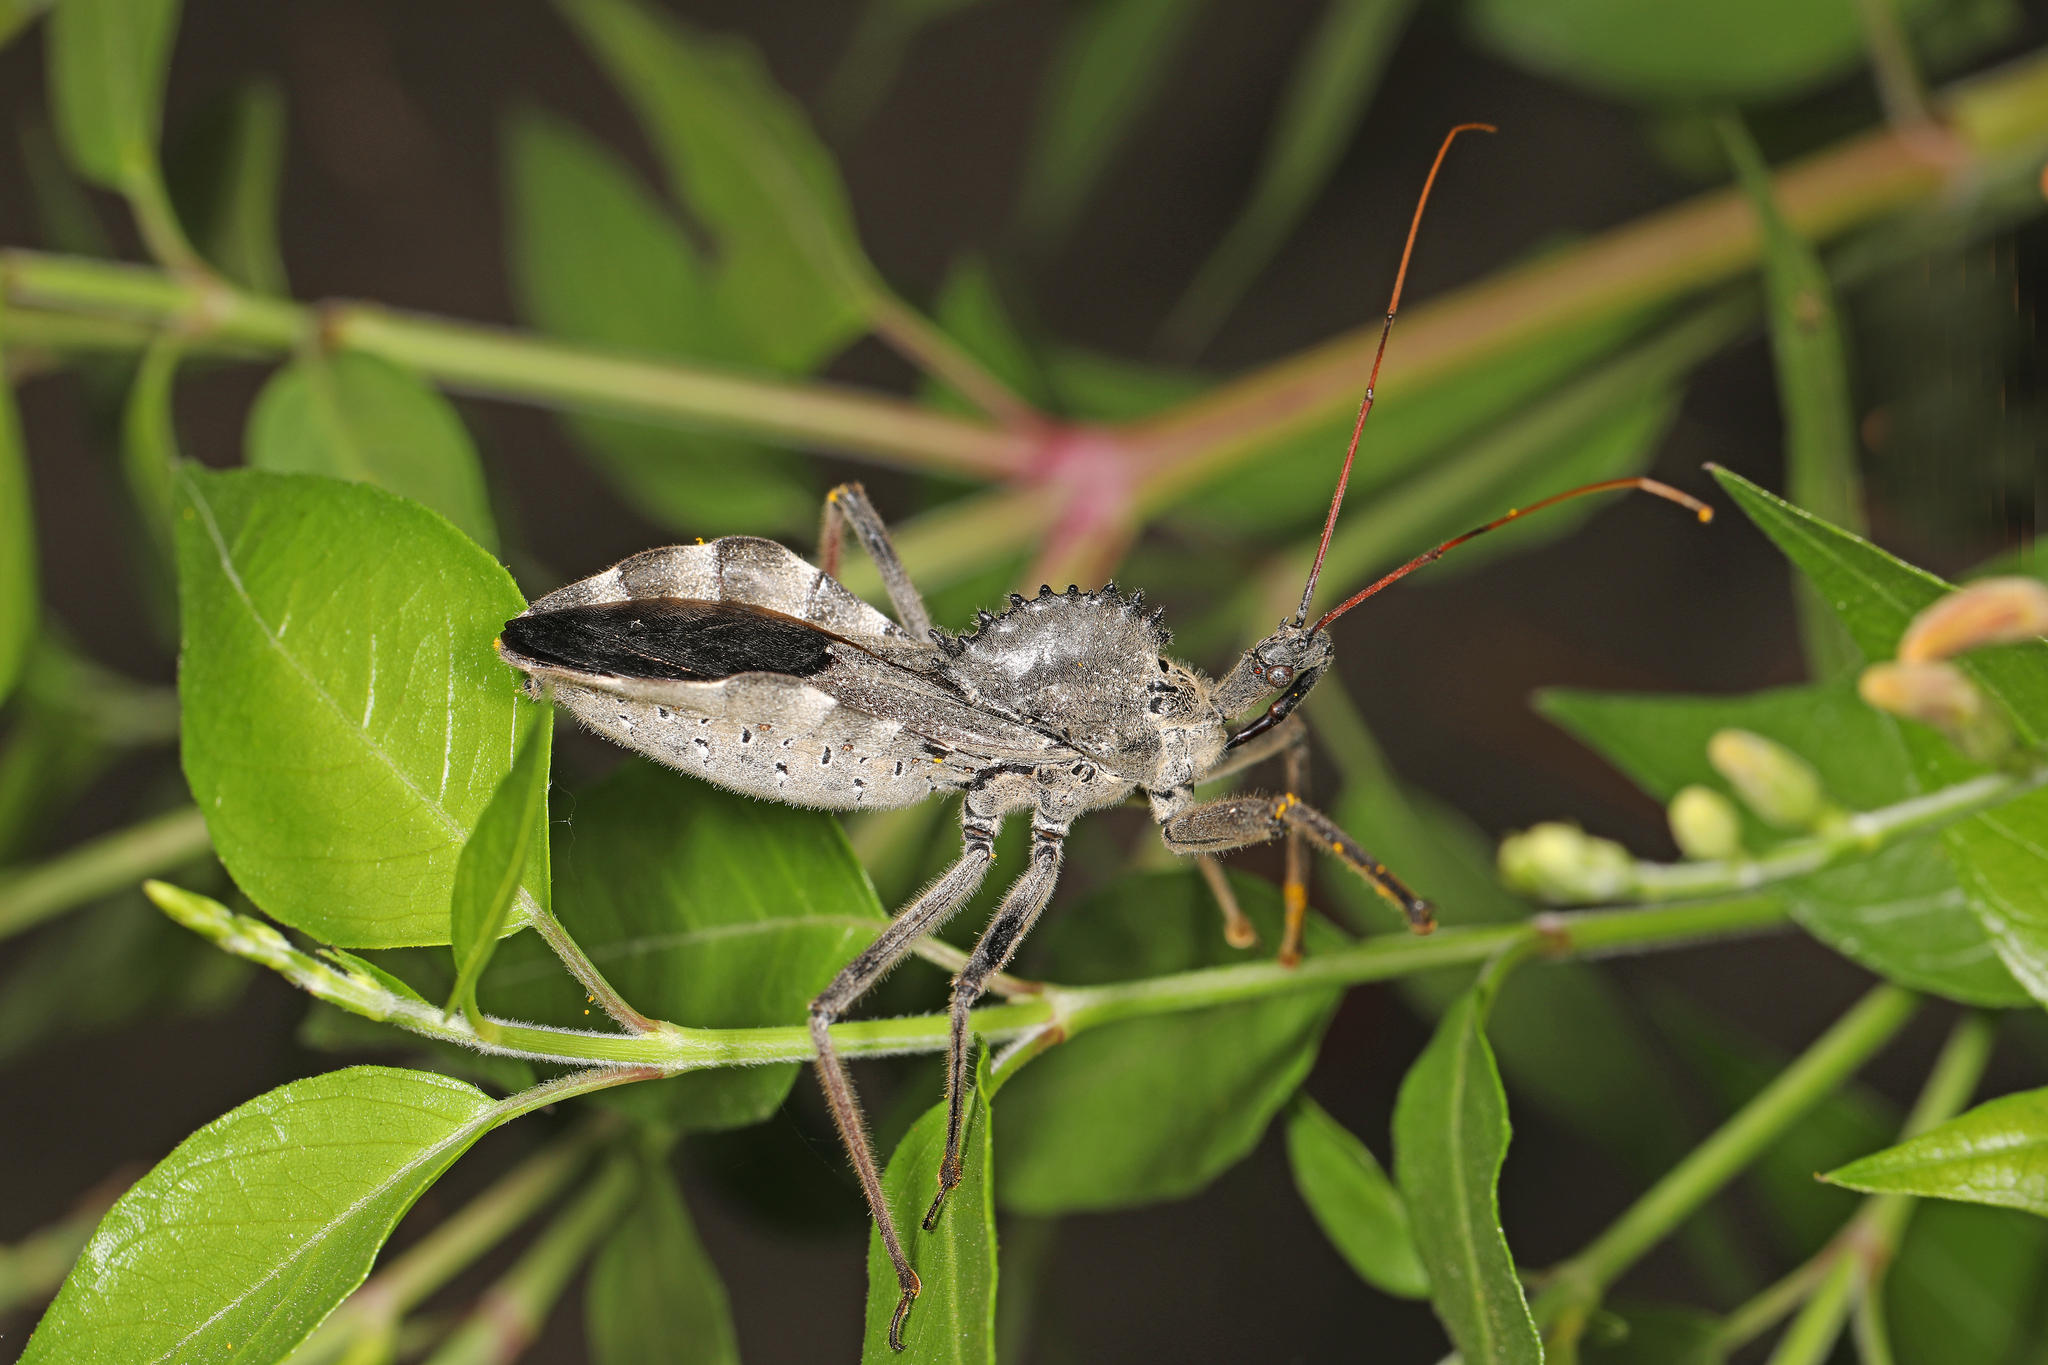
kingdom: Animalia
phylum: Arthropoda
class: Insecta
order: Hemiptera
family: Reduviidae
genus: Arilus
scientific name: Arilus cristatus
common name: North american wheel bug
